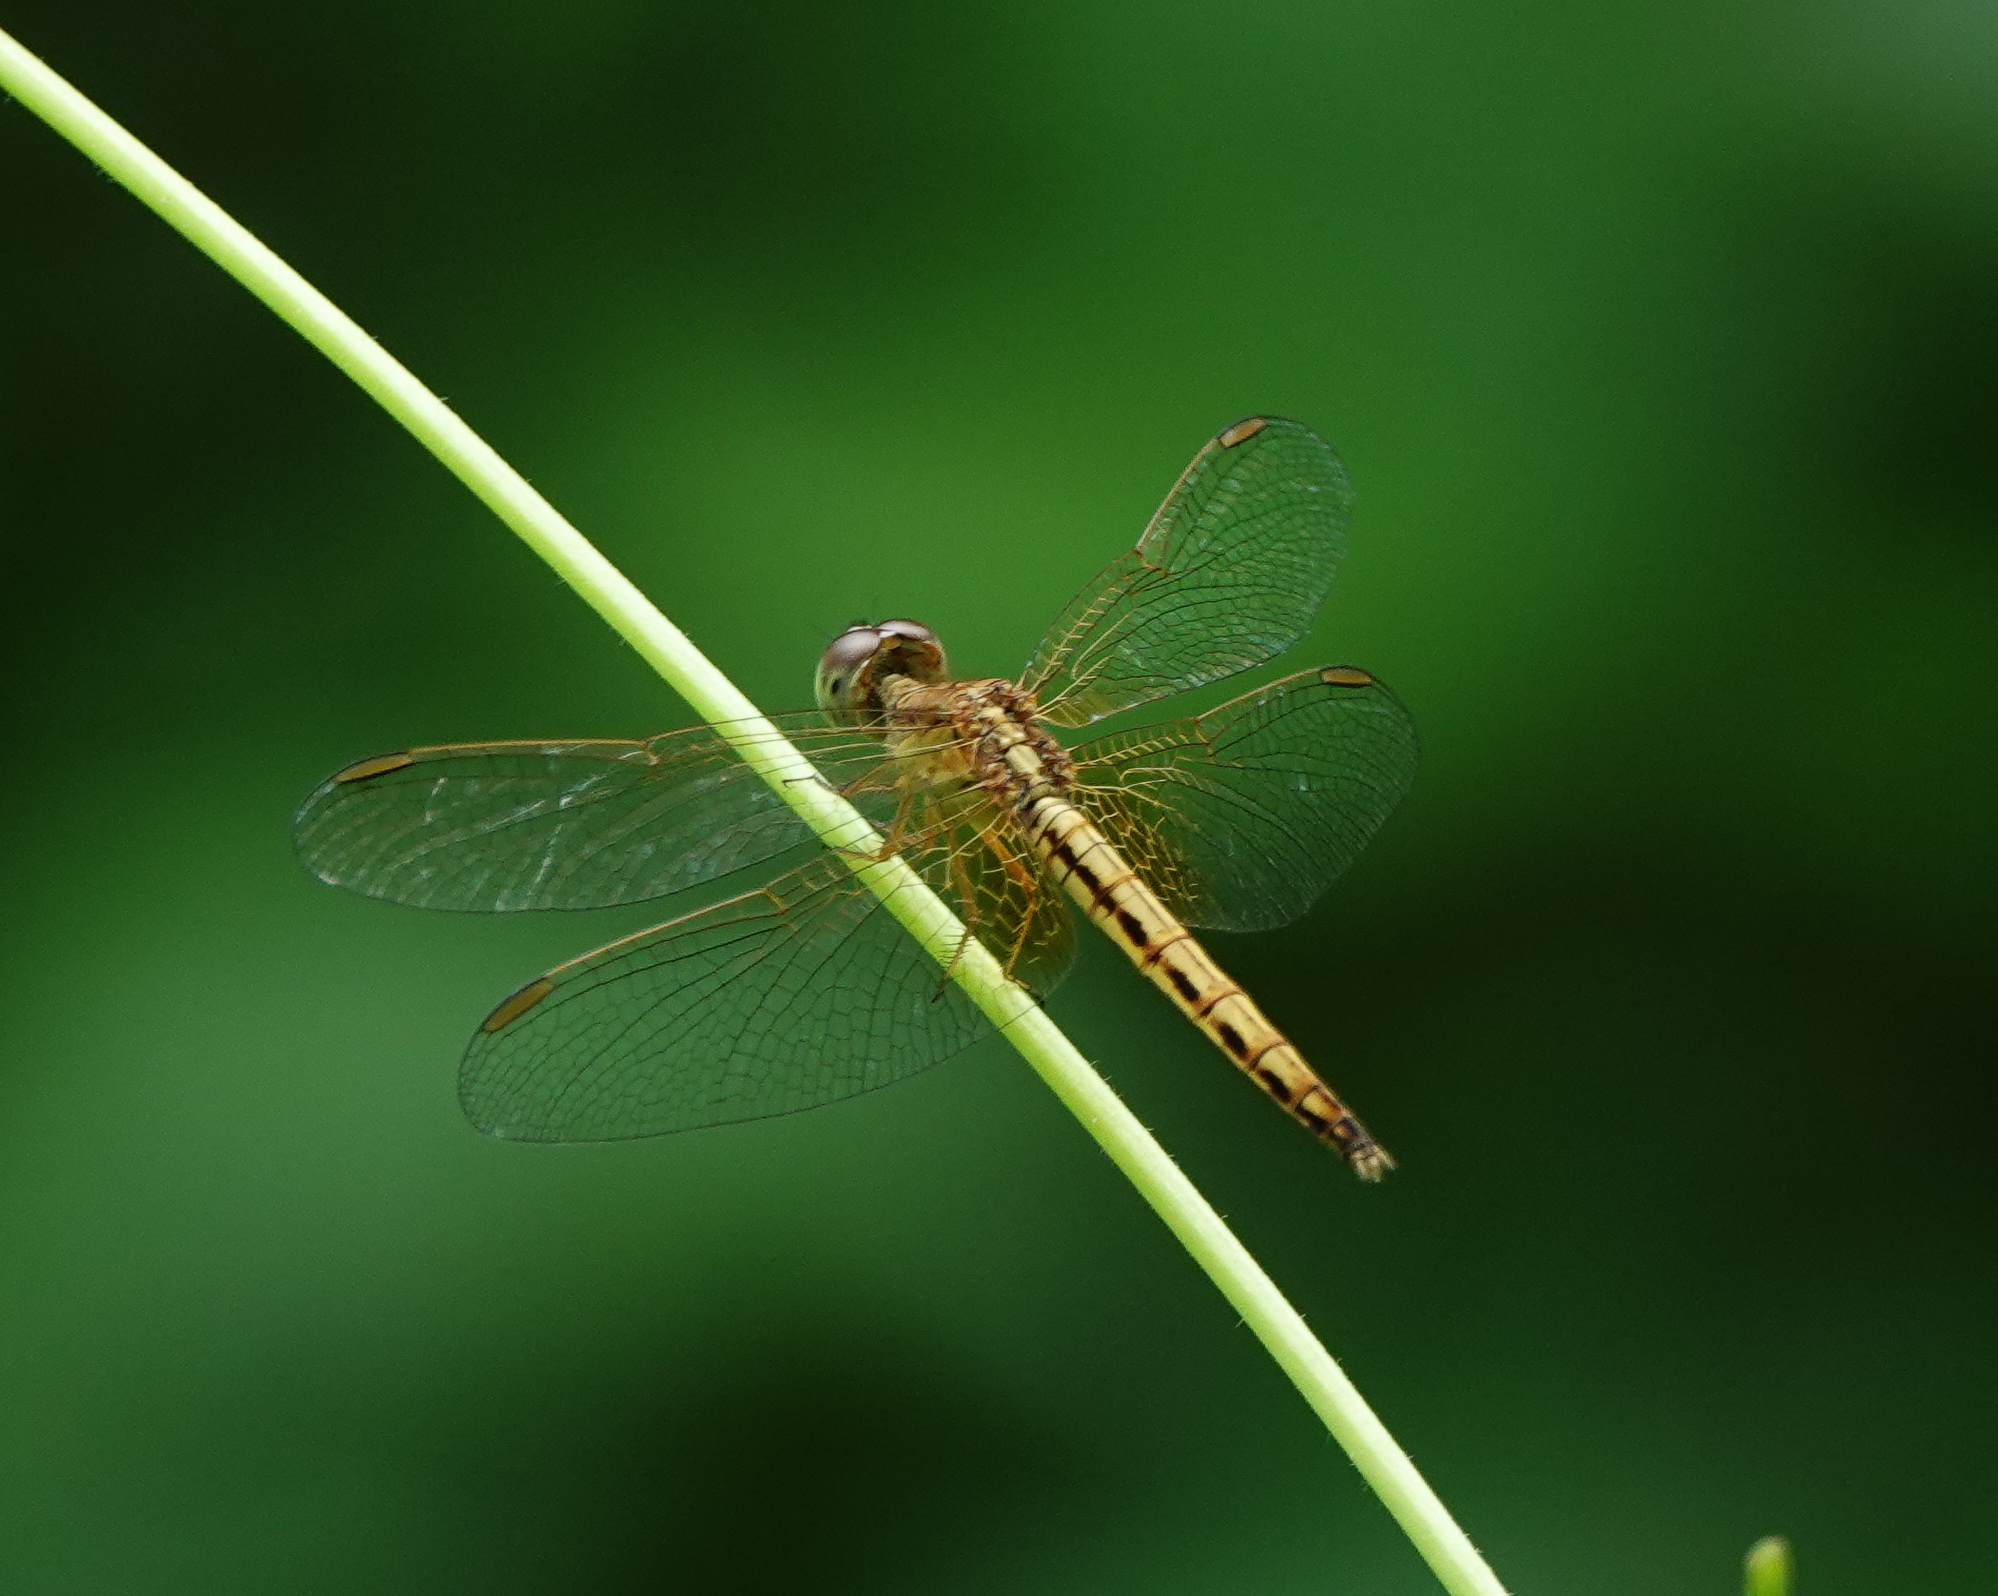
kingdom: Animalia
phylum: Arthropoda
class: Insecta
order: Odonata
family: Libellulidae
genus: Neurothemis
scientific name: Neurothemis intermedia
